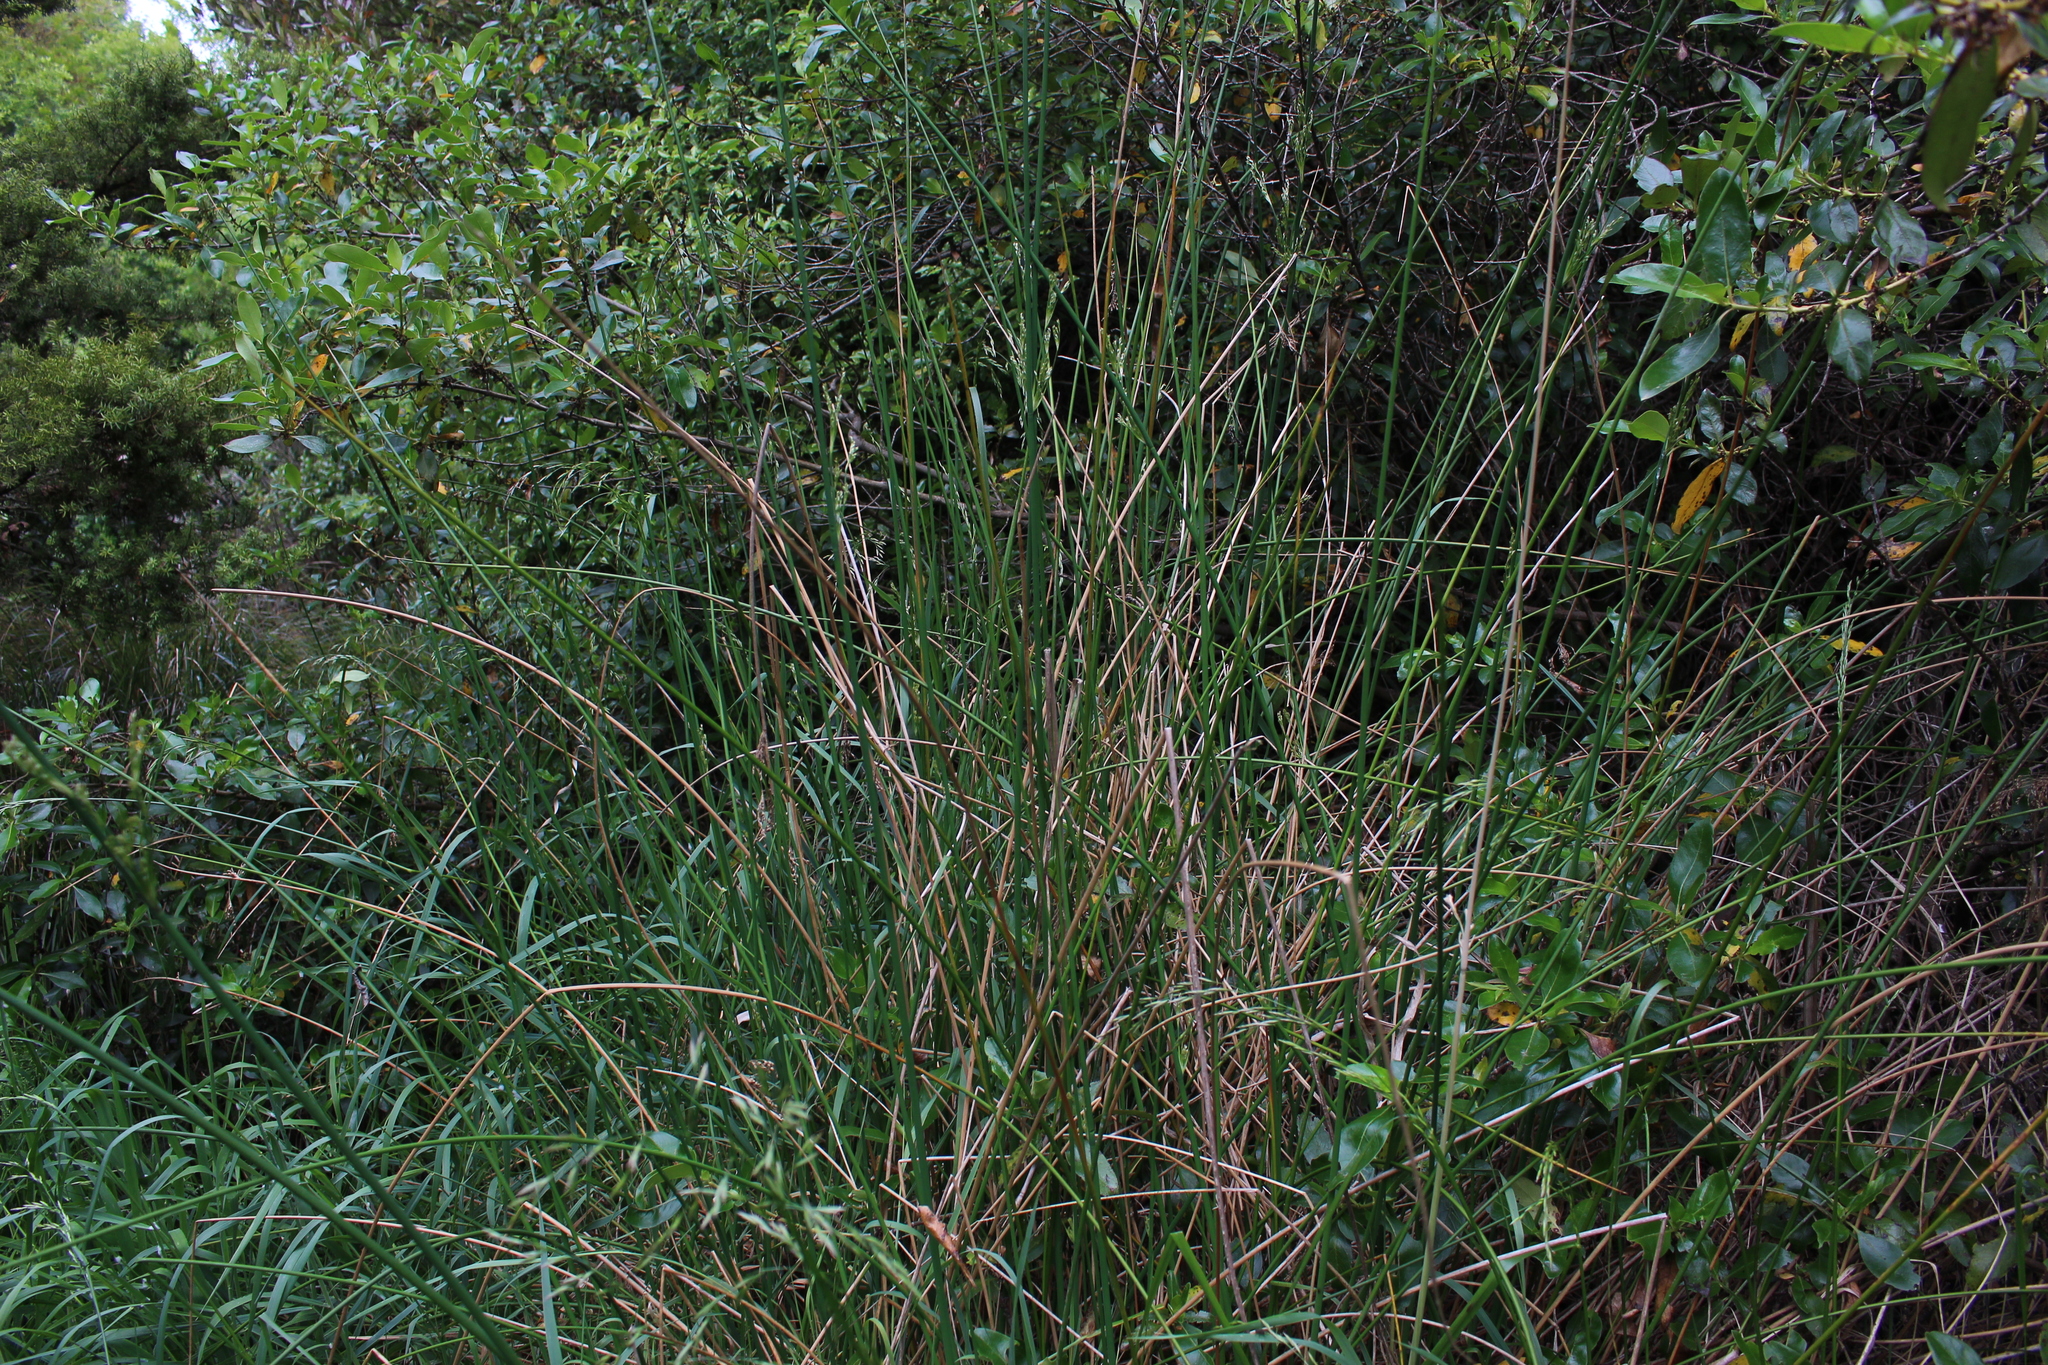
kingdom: Plantae
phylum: Tracheophyta
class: Liliopsida
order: Poales
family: Juncaceae
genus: Juncus
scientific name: Juncus sarophorus
